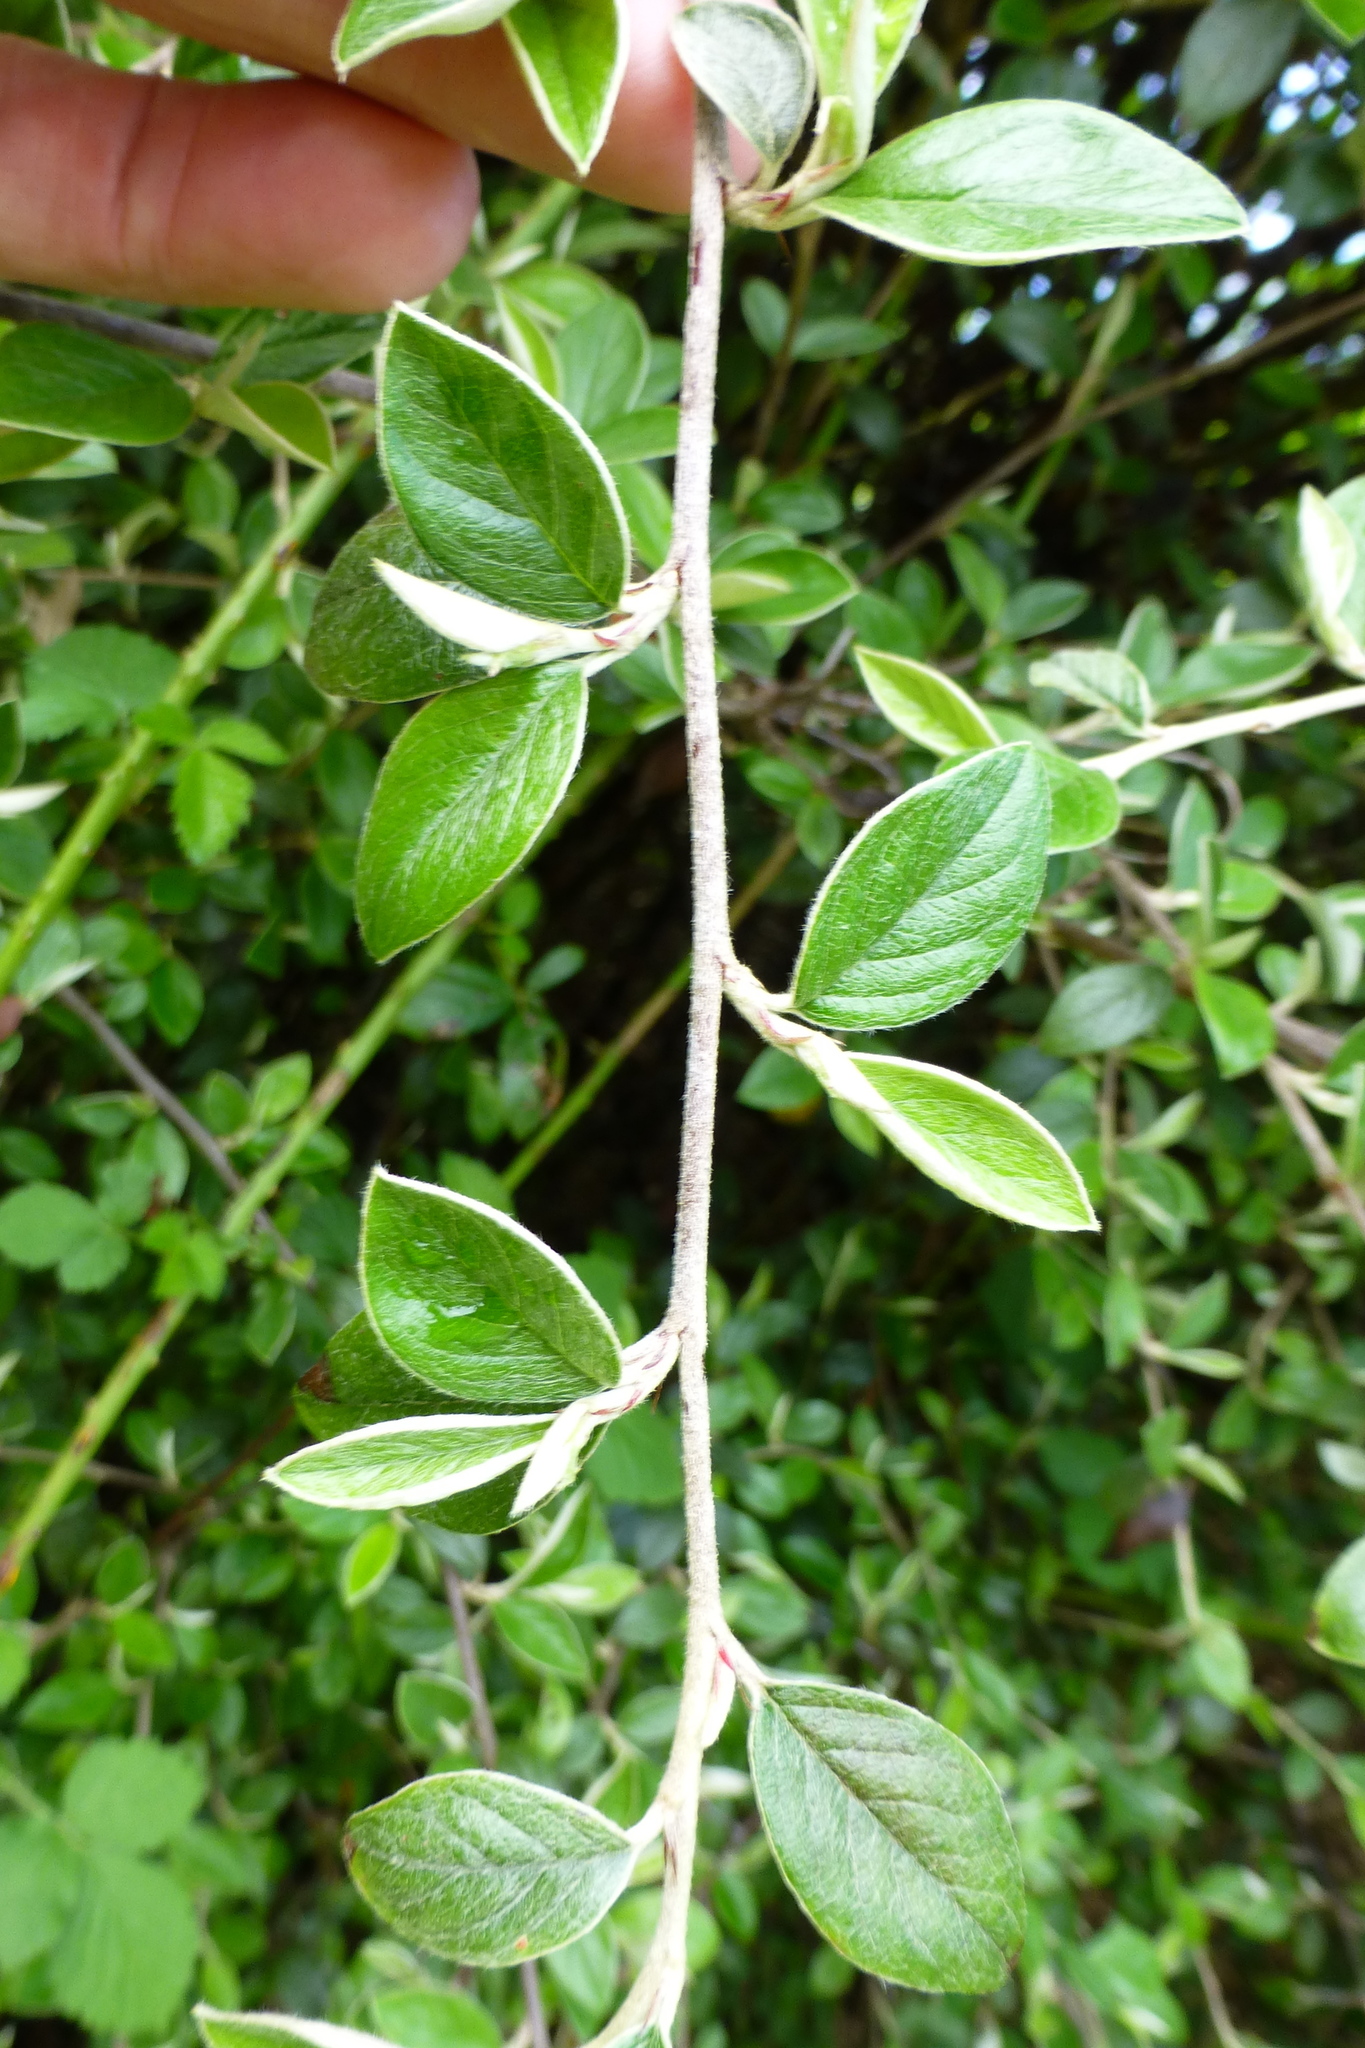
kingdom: Plantae
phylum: Tracheophyta
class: Magnoliopsida
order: Rosales
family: Rosaceae
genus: Cotoneaster
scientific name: Cotoneaster franchetii
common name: Franchet's cotoneaster
